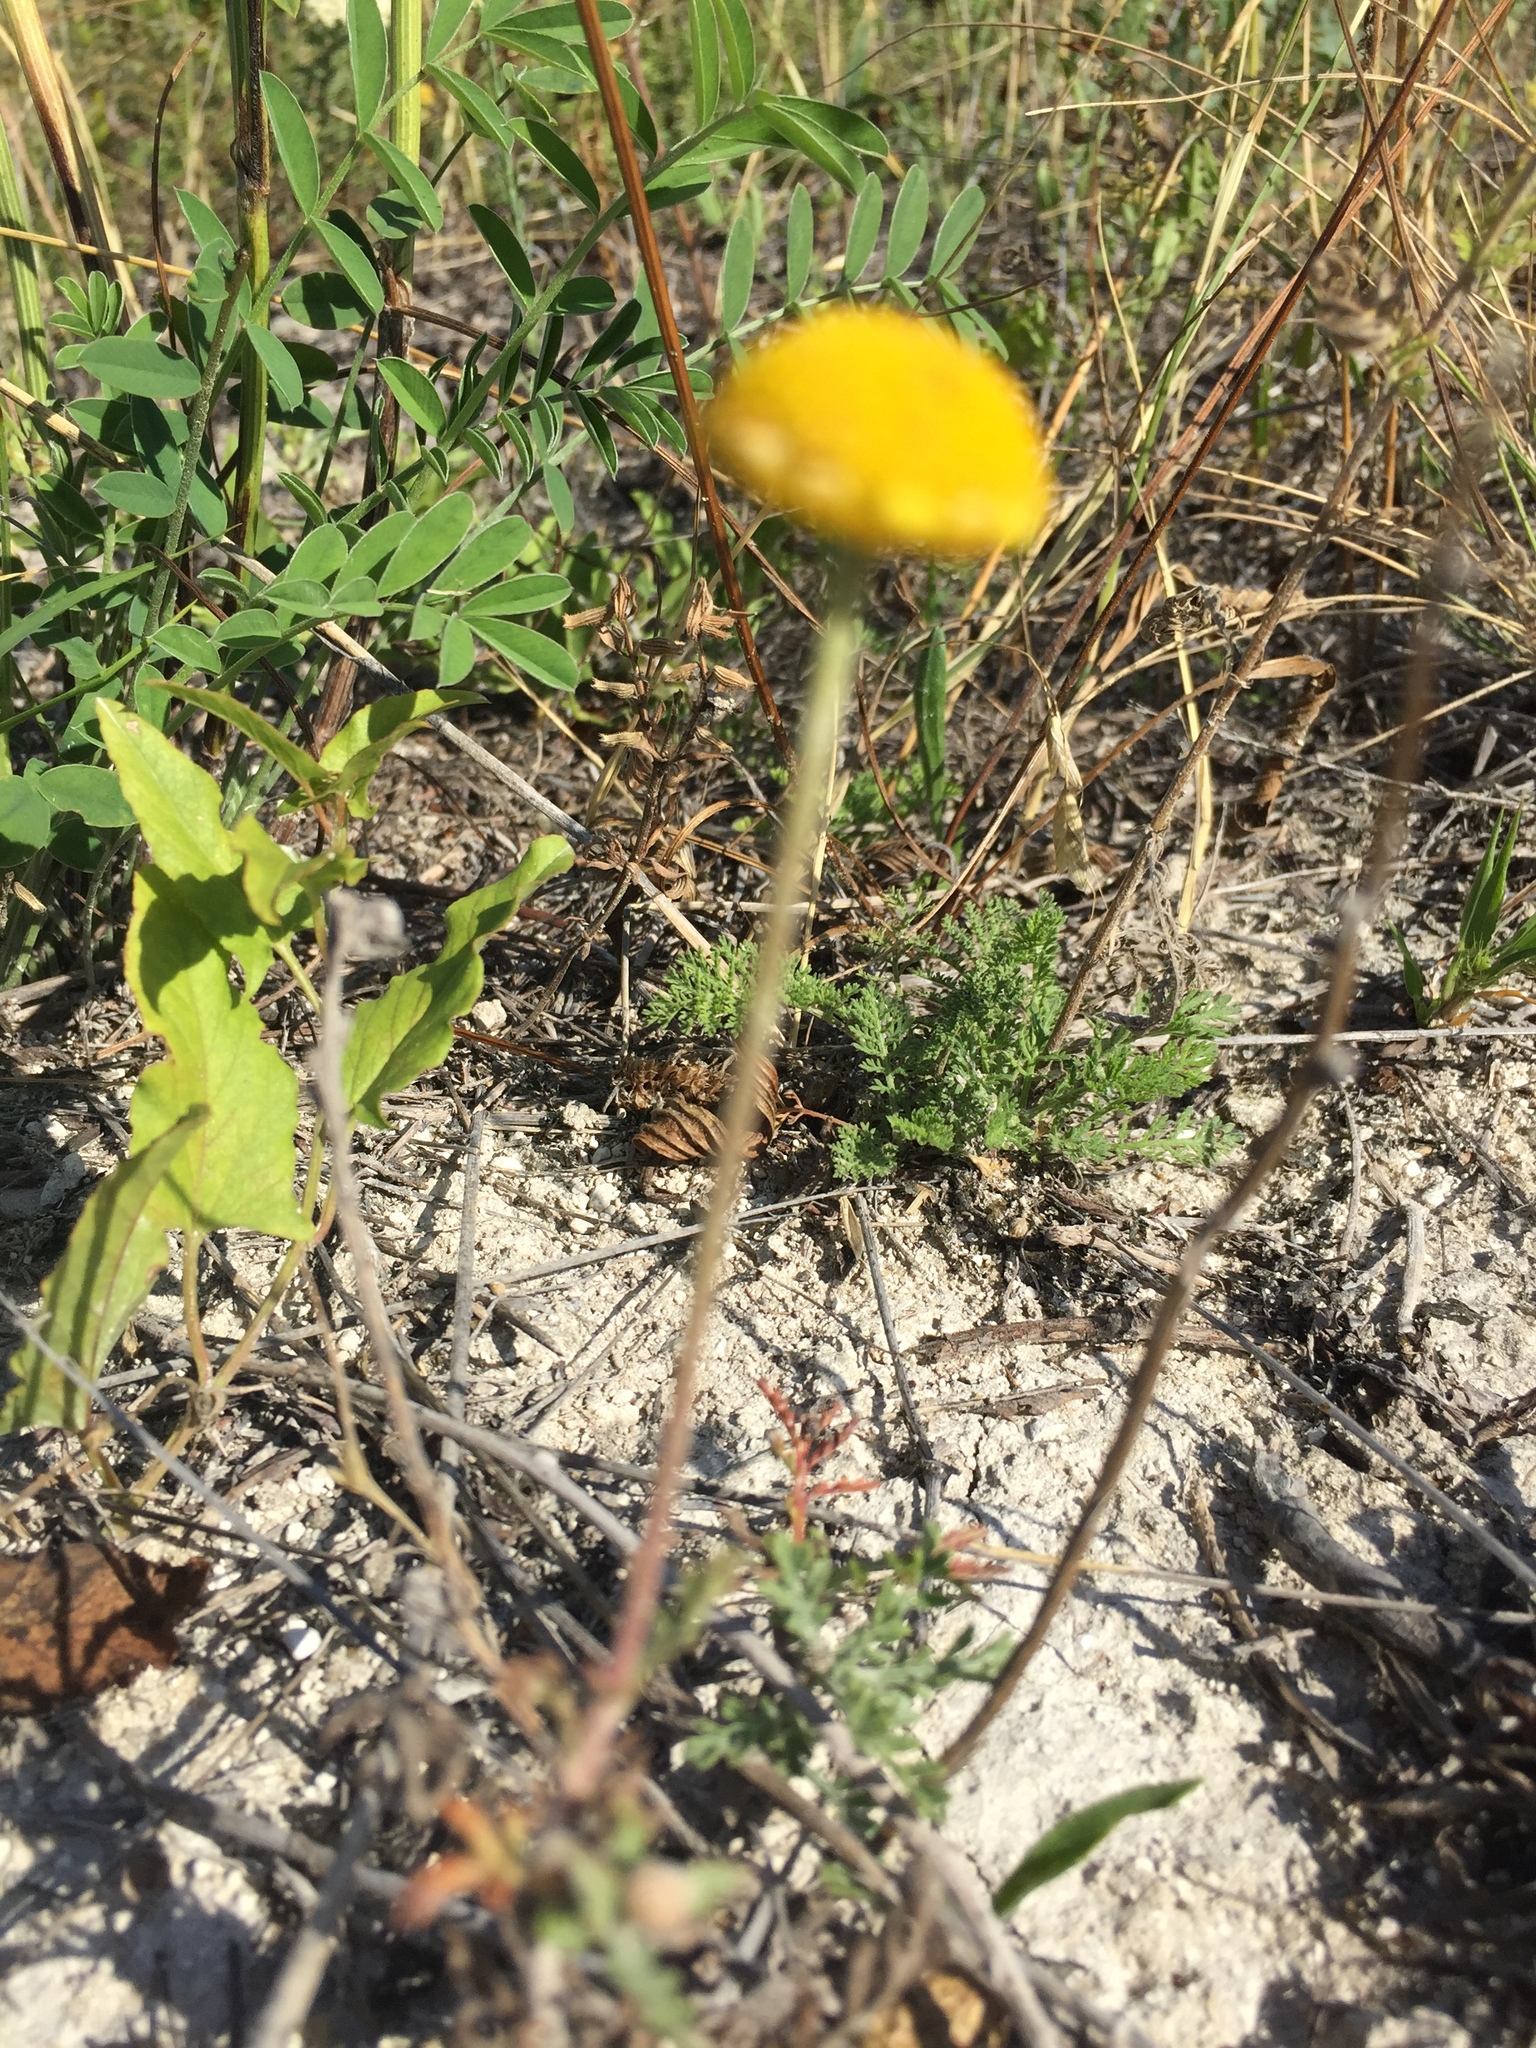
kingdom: Plantae
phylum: Tracheophyta
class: Magnoliopsida
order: Asterales
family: Asteraceae
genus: Cota
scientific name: Cota tinctoria
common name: Golden chamomile
